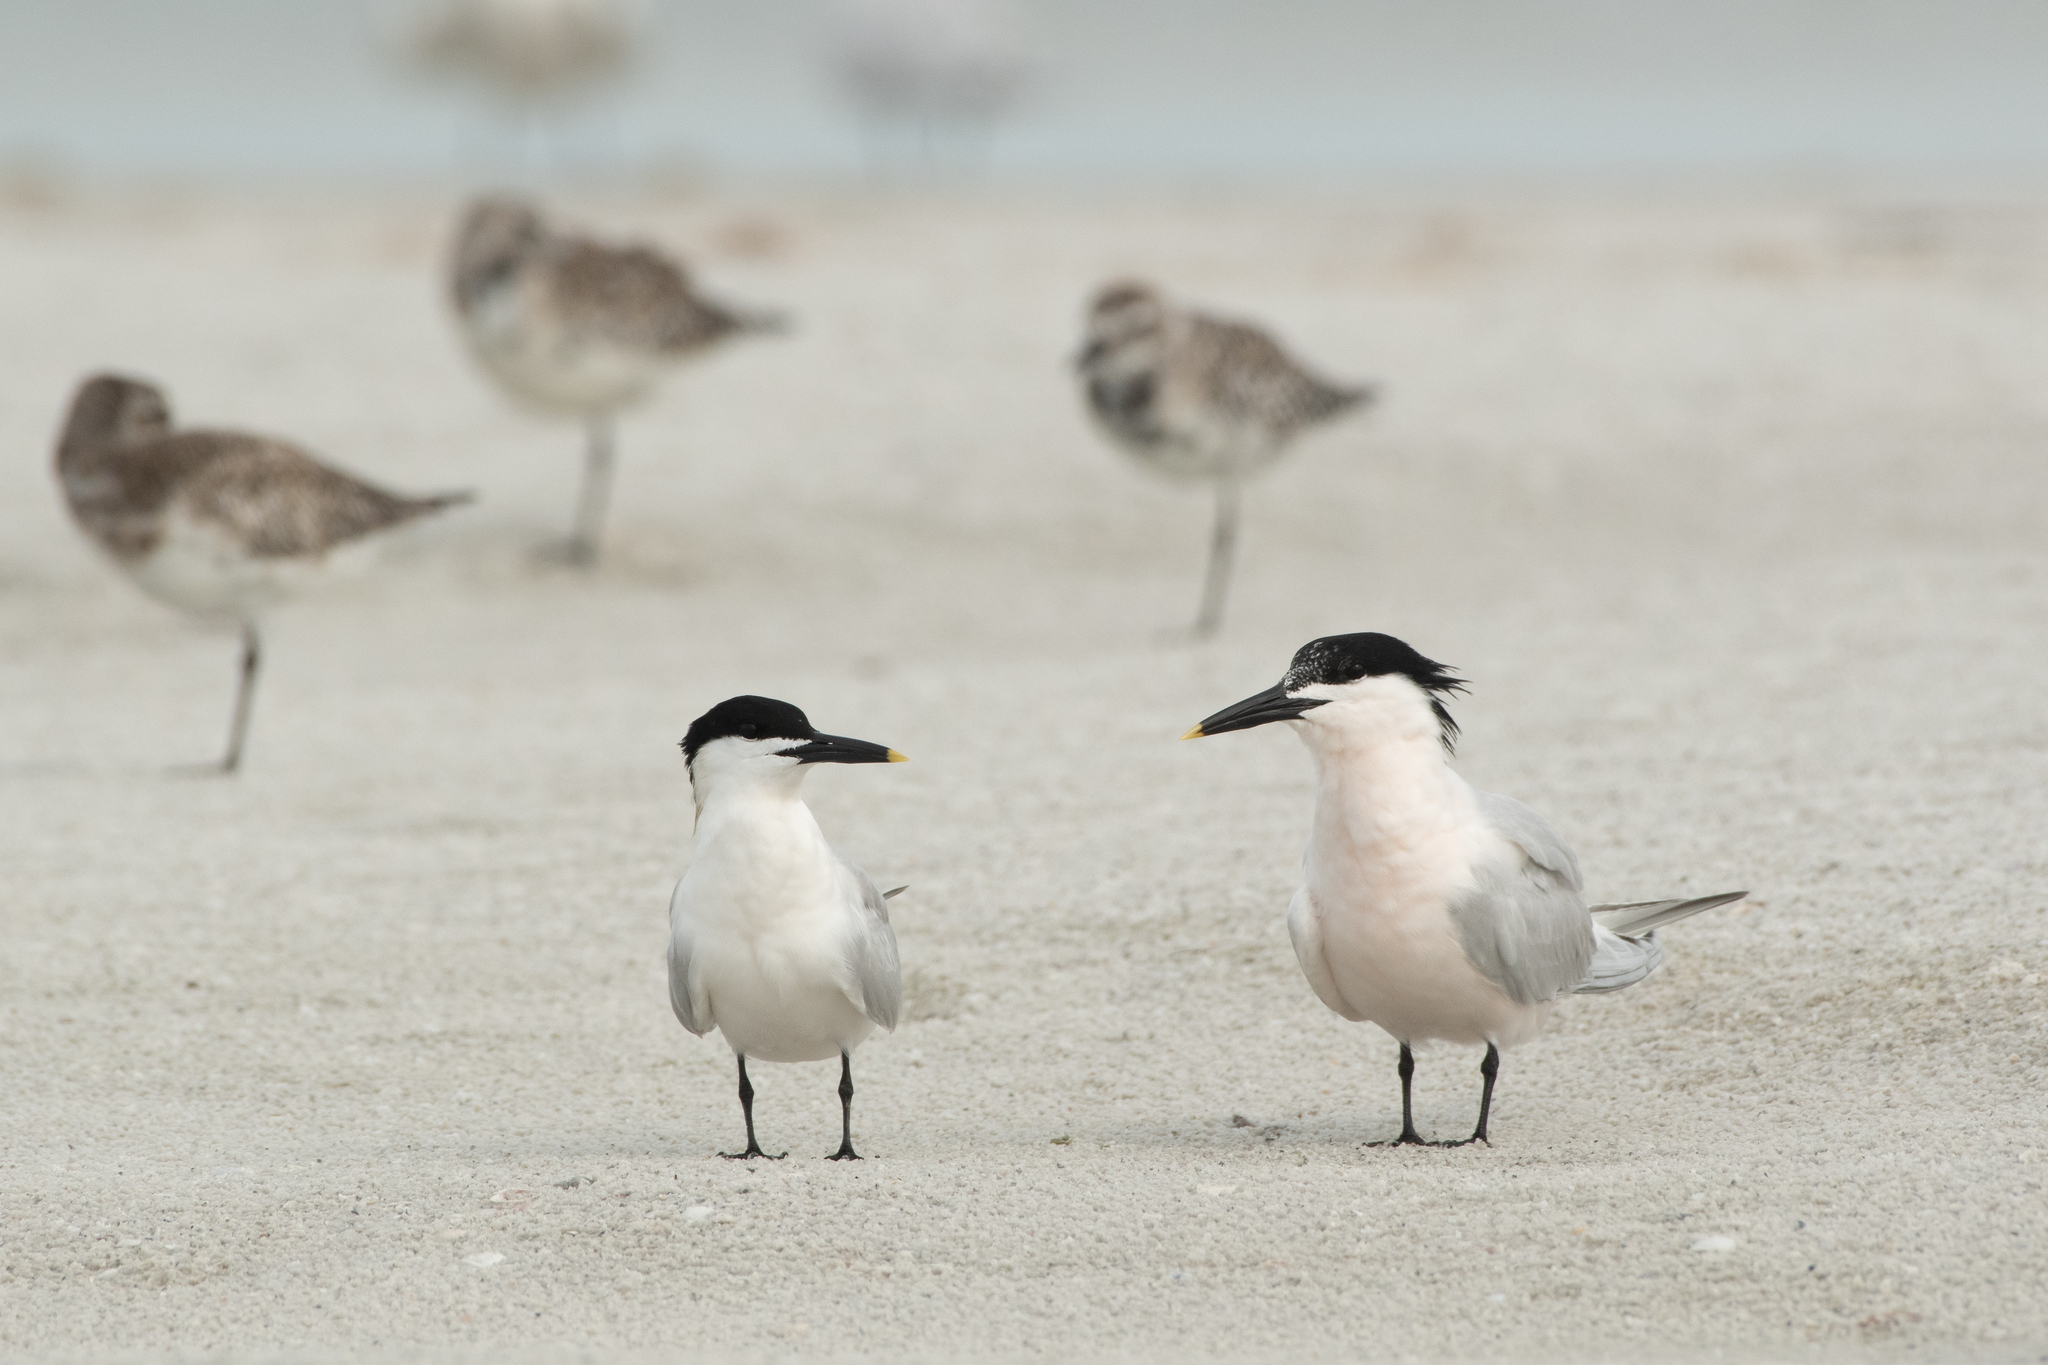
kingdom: Animalia
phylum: Chordata
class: Aves
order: Charadriiformes
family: Laridae
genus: Thalasseus
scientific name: Thalasseus sandvicensis
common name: Sandwich tern
